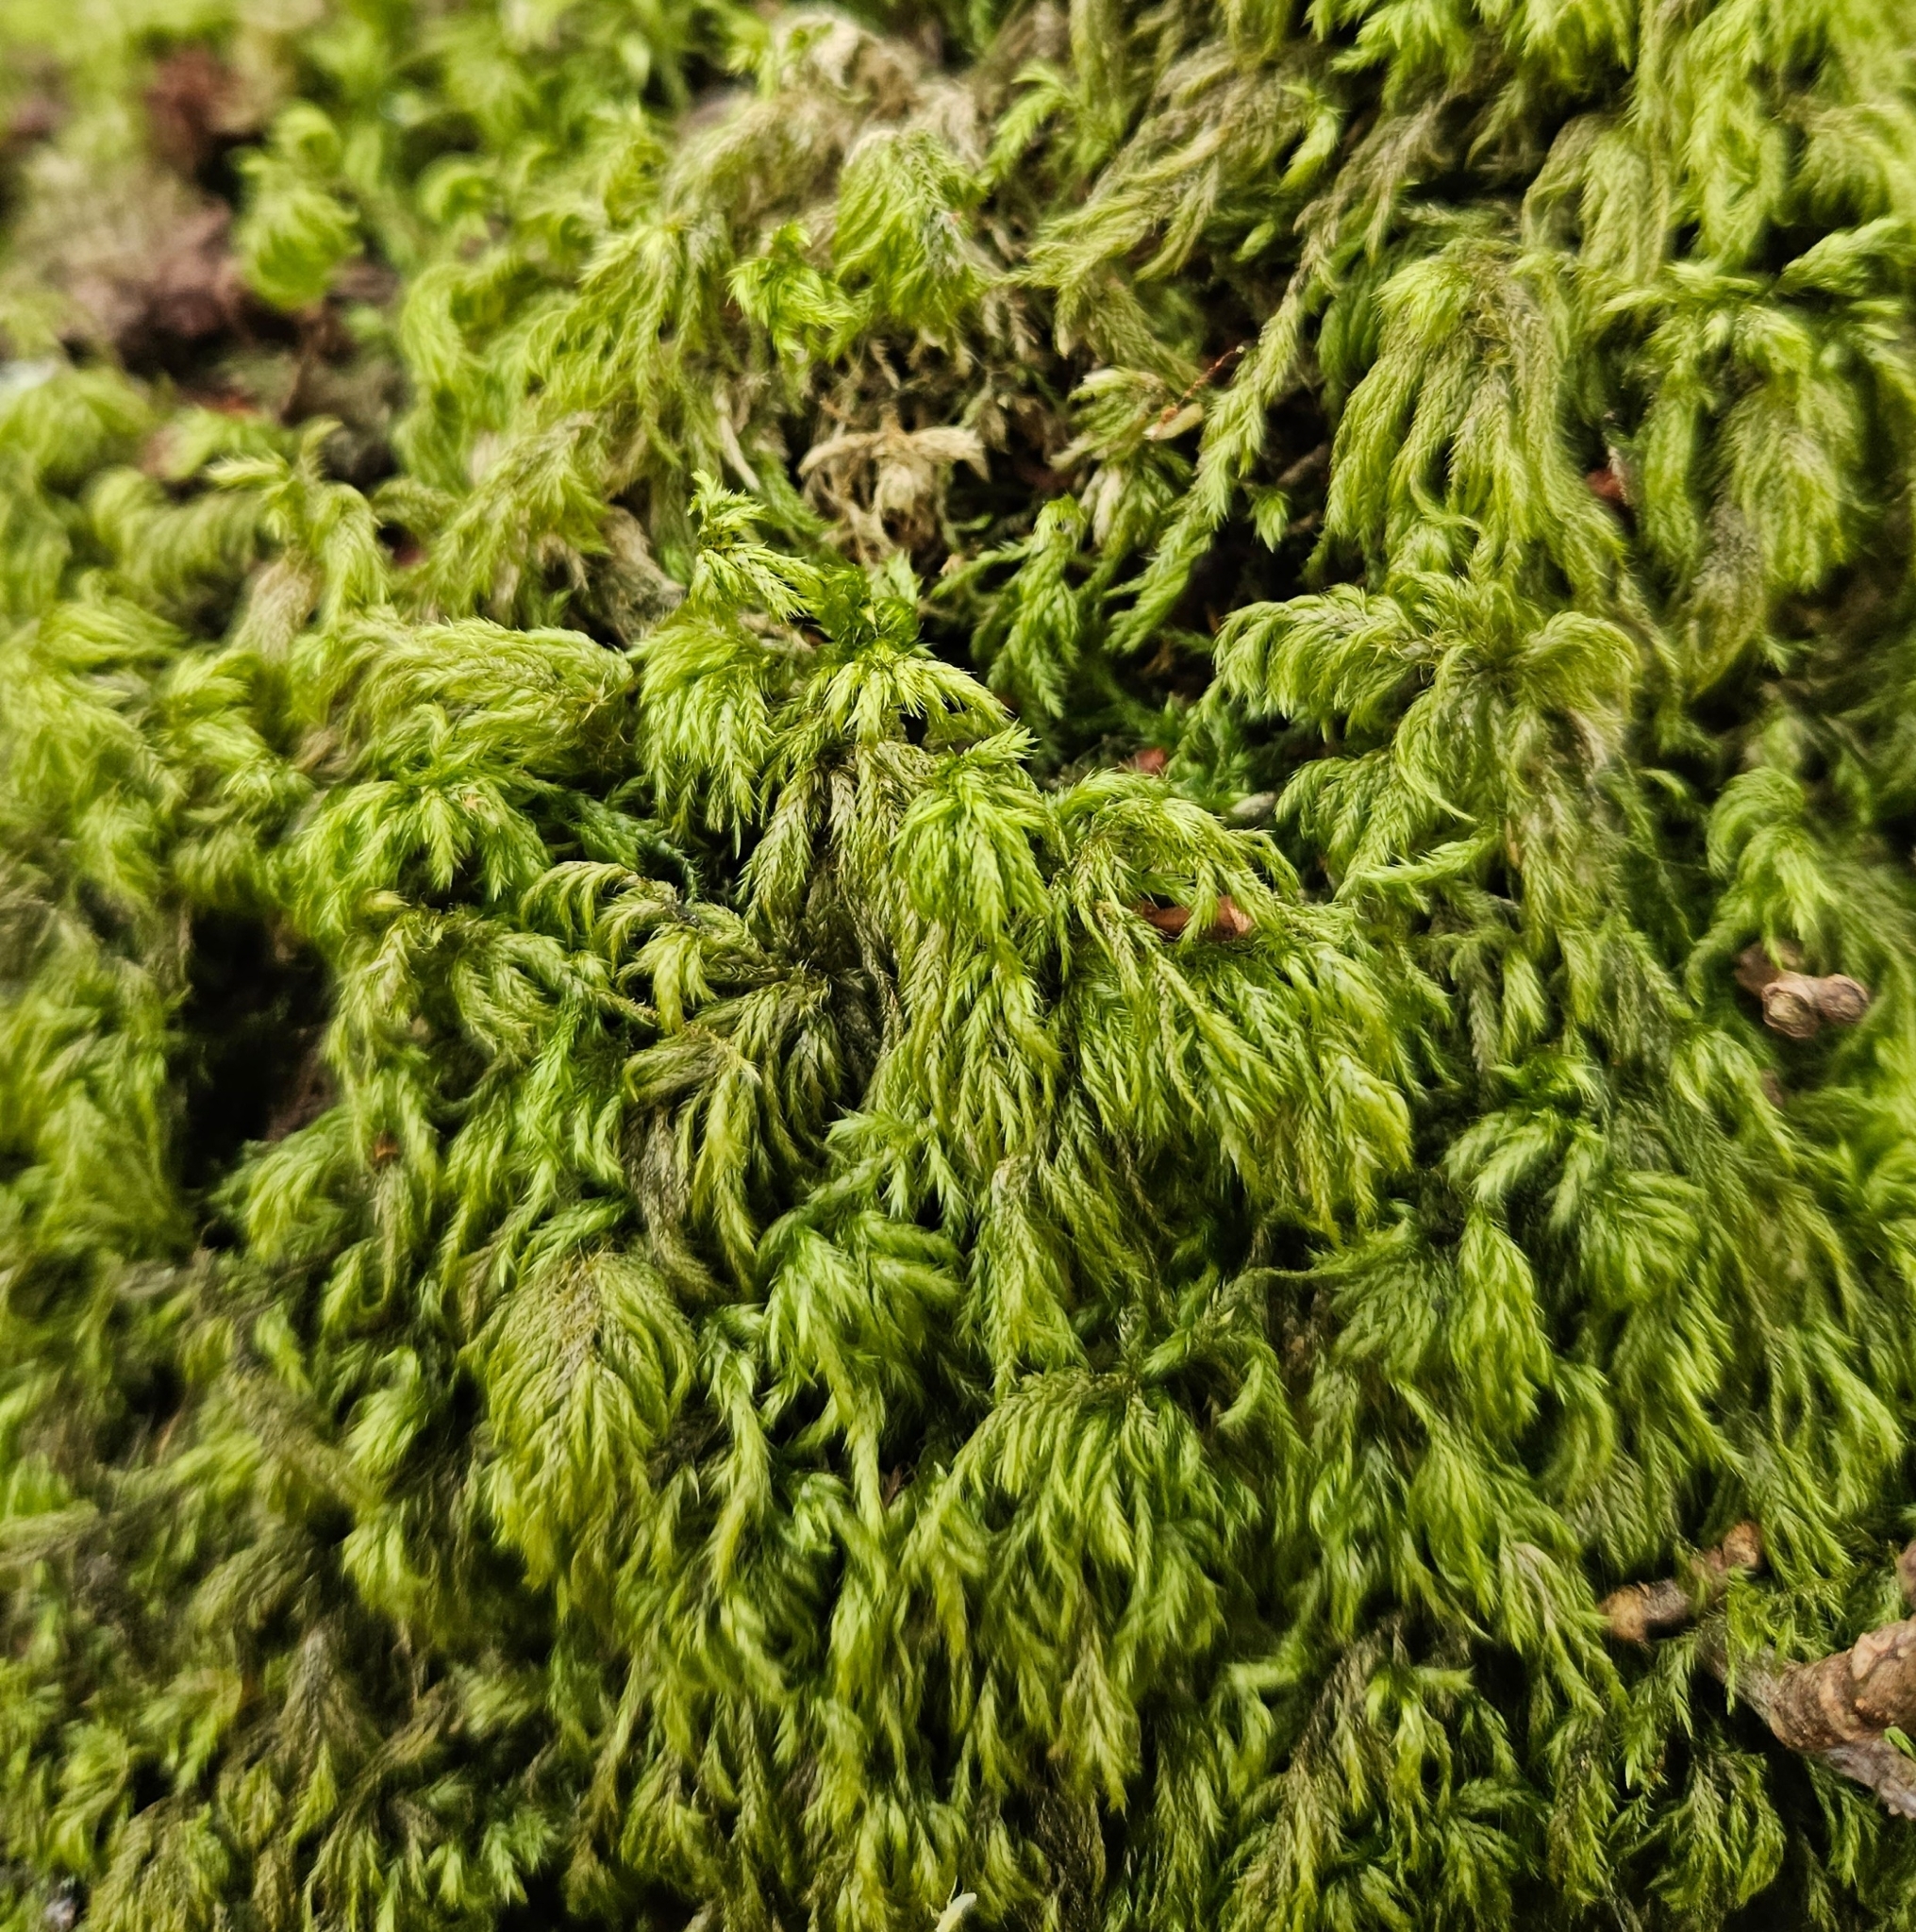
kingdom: Plantae
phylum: Bryophyta
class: Bryopsida
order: Hypnales
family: Lembophyllaceae
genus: Pseudisothecium
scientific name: Pseudisothecium myosuroides
